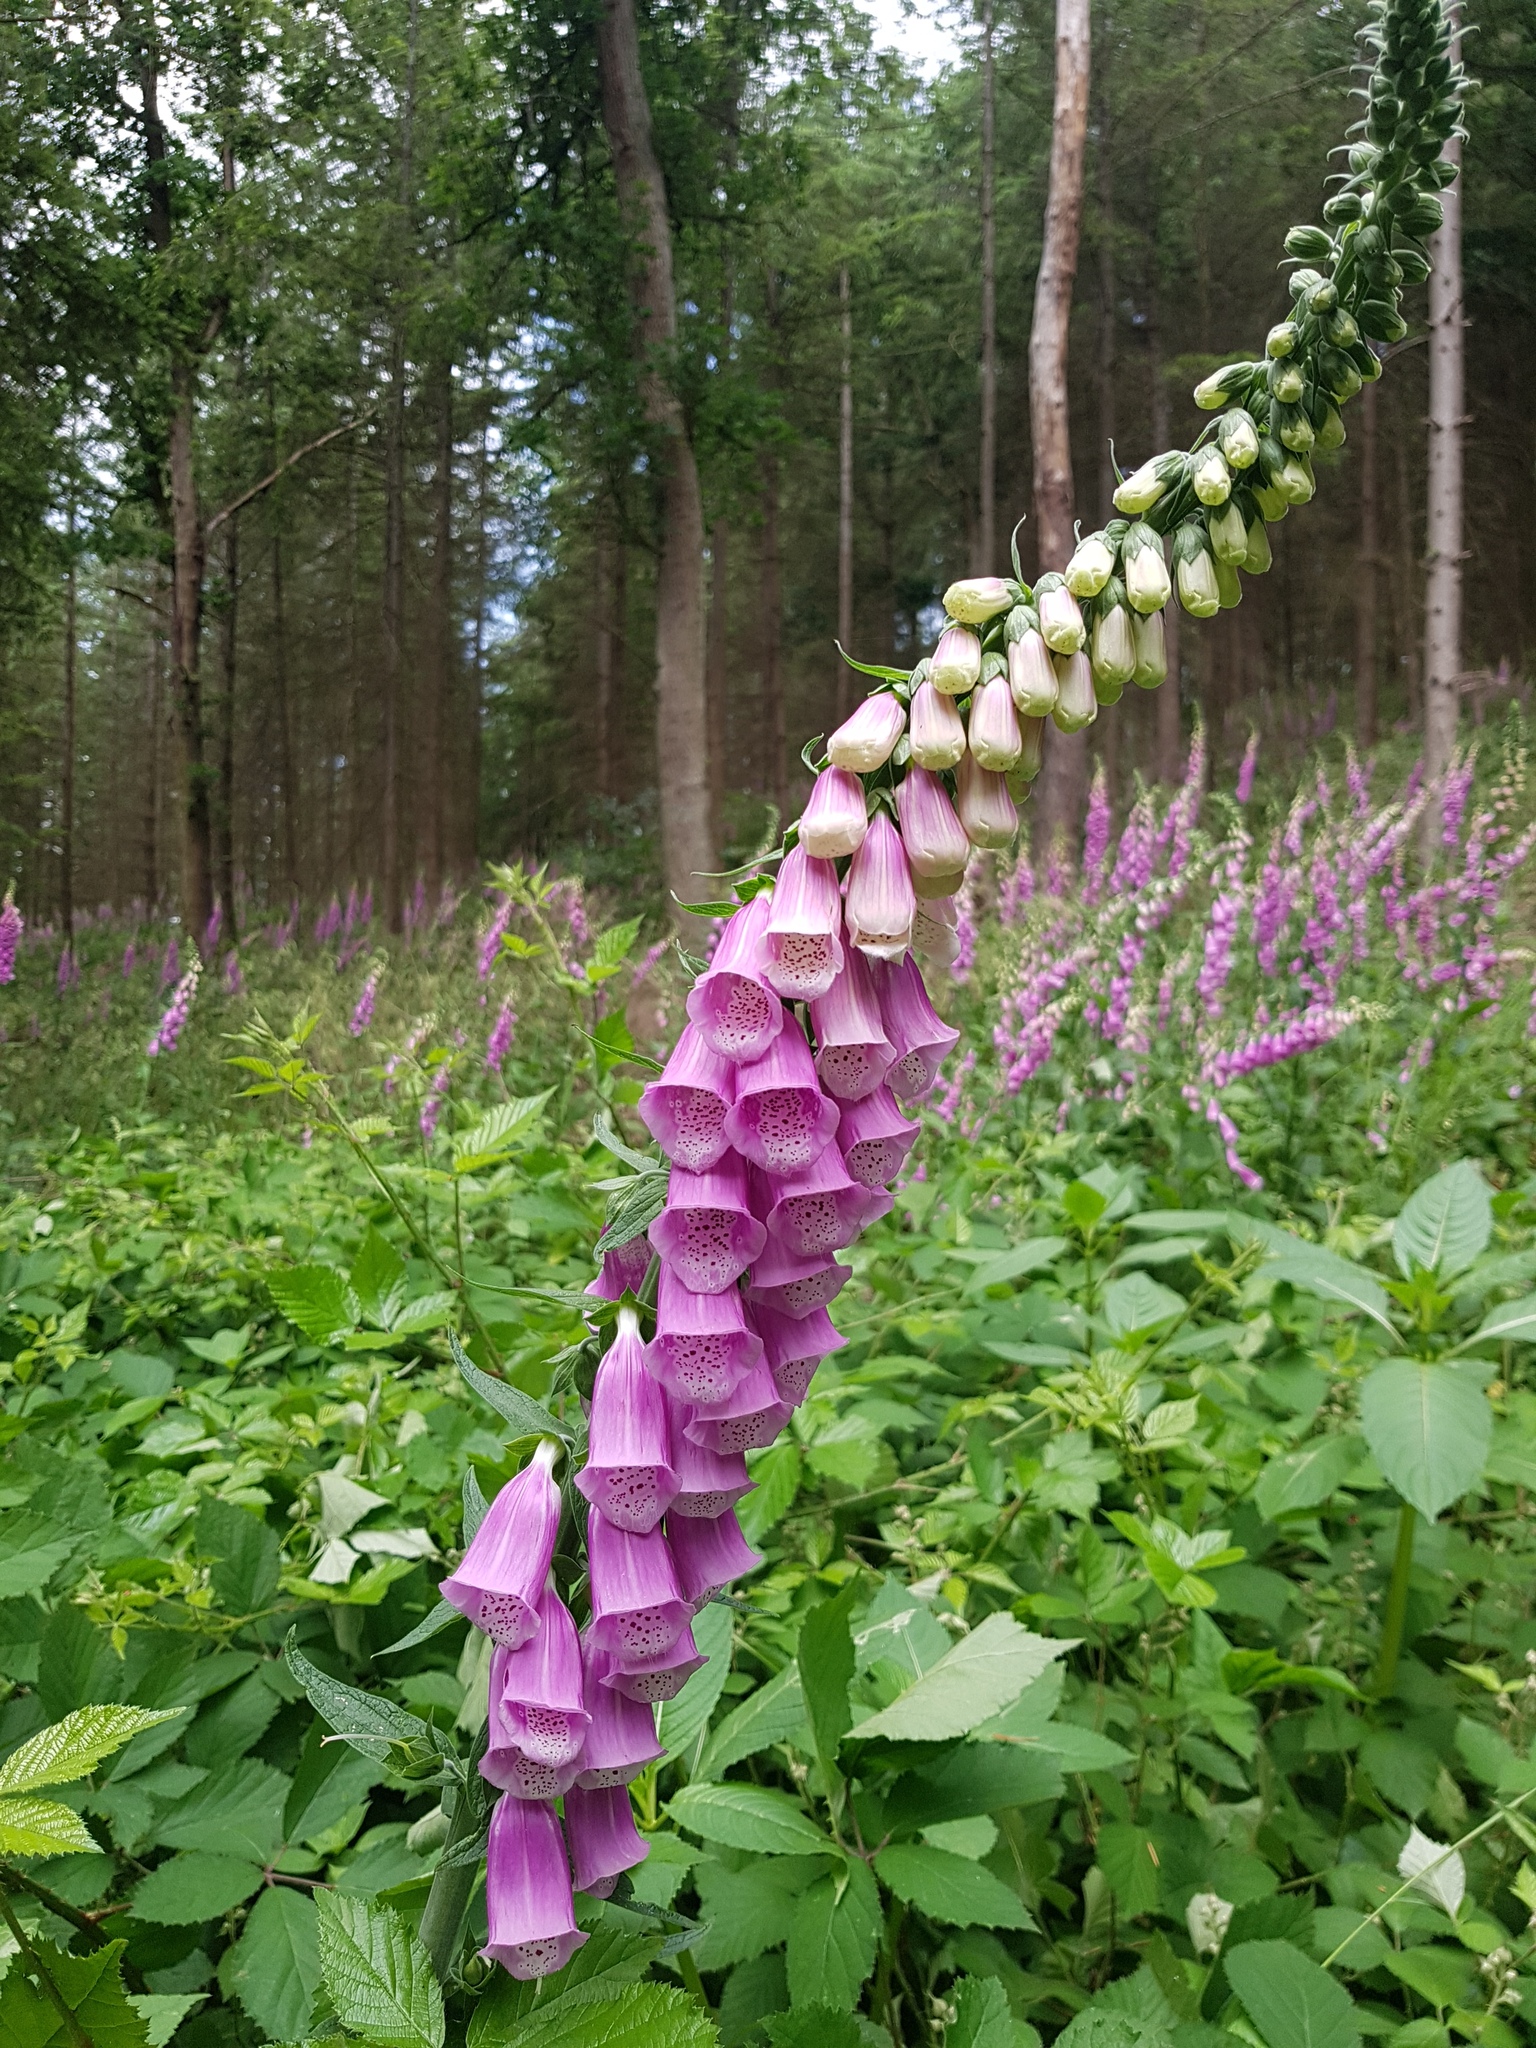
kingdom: Plantae
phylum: Tracheophyta
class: Magnoliopsida
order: Lamiales
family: Plantaginaceae
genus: Digitalis
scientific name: Digitalis purpurea
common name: Foxglove
